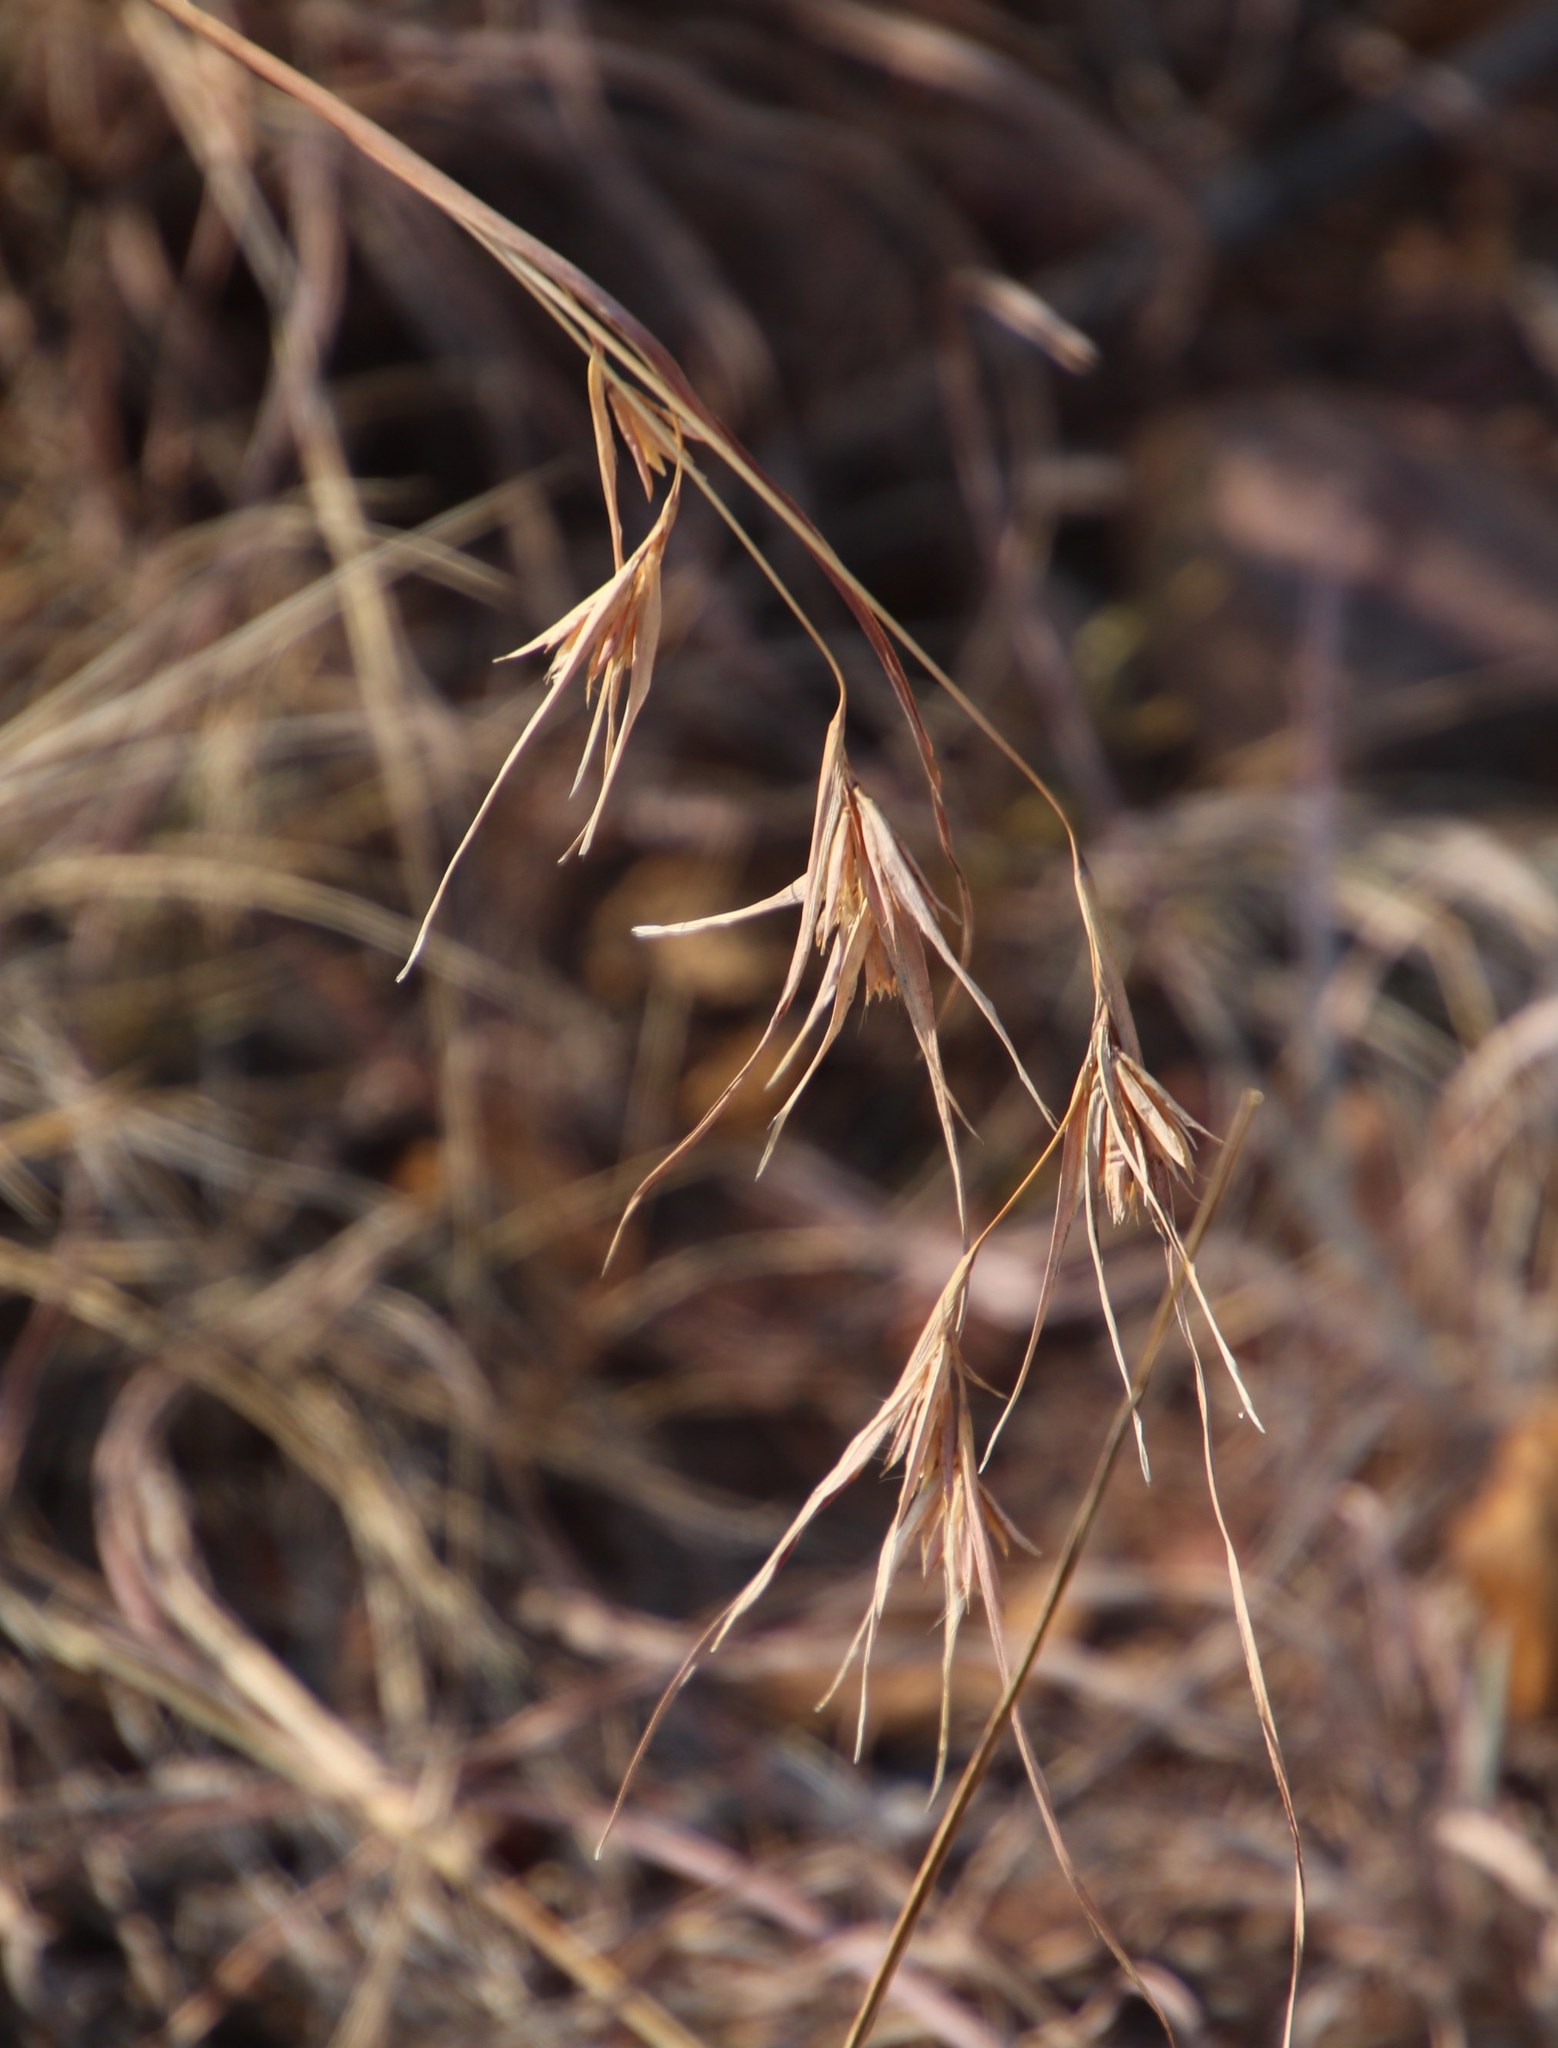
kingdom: Plantae
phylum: Tracheophyta
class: Liliopsida
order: Poales
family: Poaceae
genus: Themeda
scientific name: Themeda triandra
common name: Kangaroo grass
